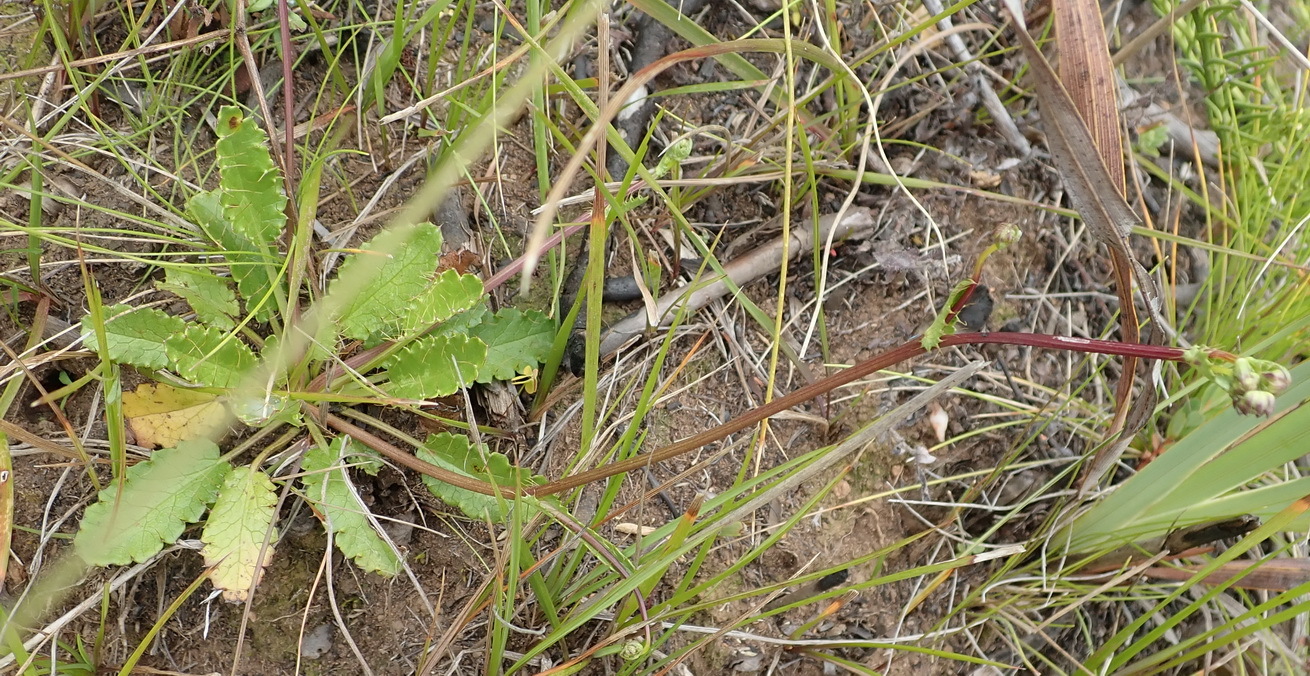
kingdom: Plantae
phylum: Tracheophyta
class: Magnoliopsida
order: Apiales
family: Apiaceae
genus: Alepidea
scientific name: Alepidea delicatula
